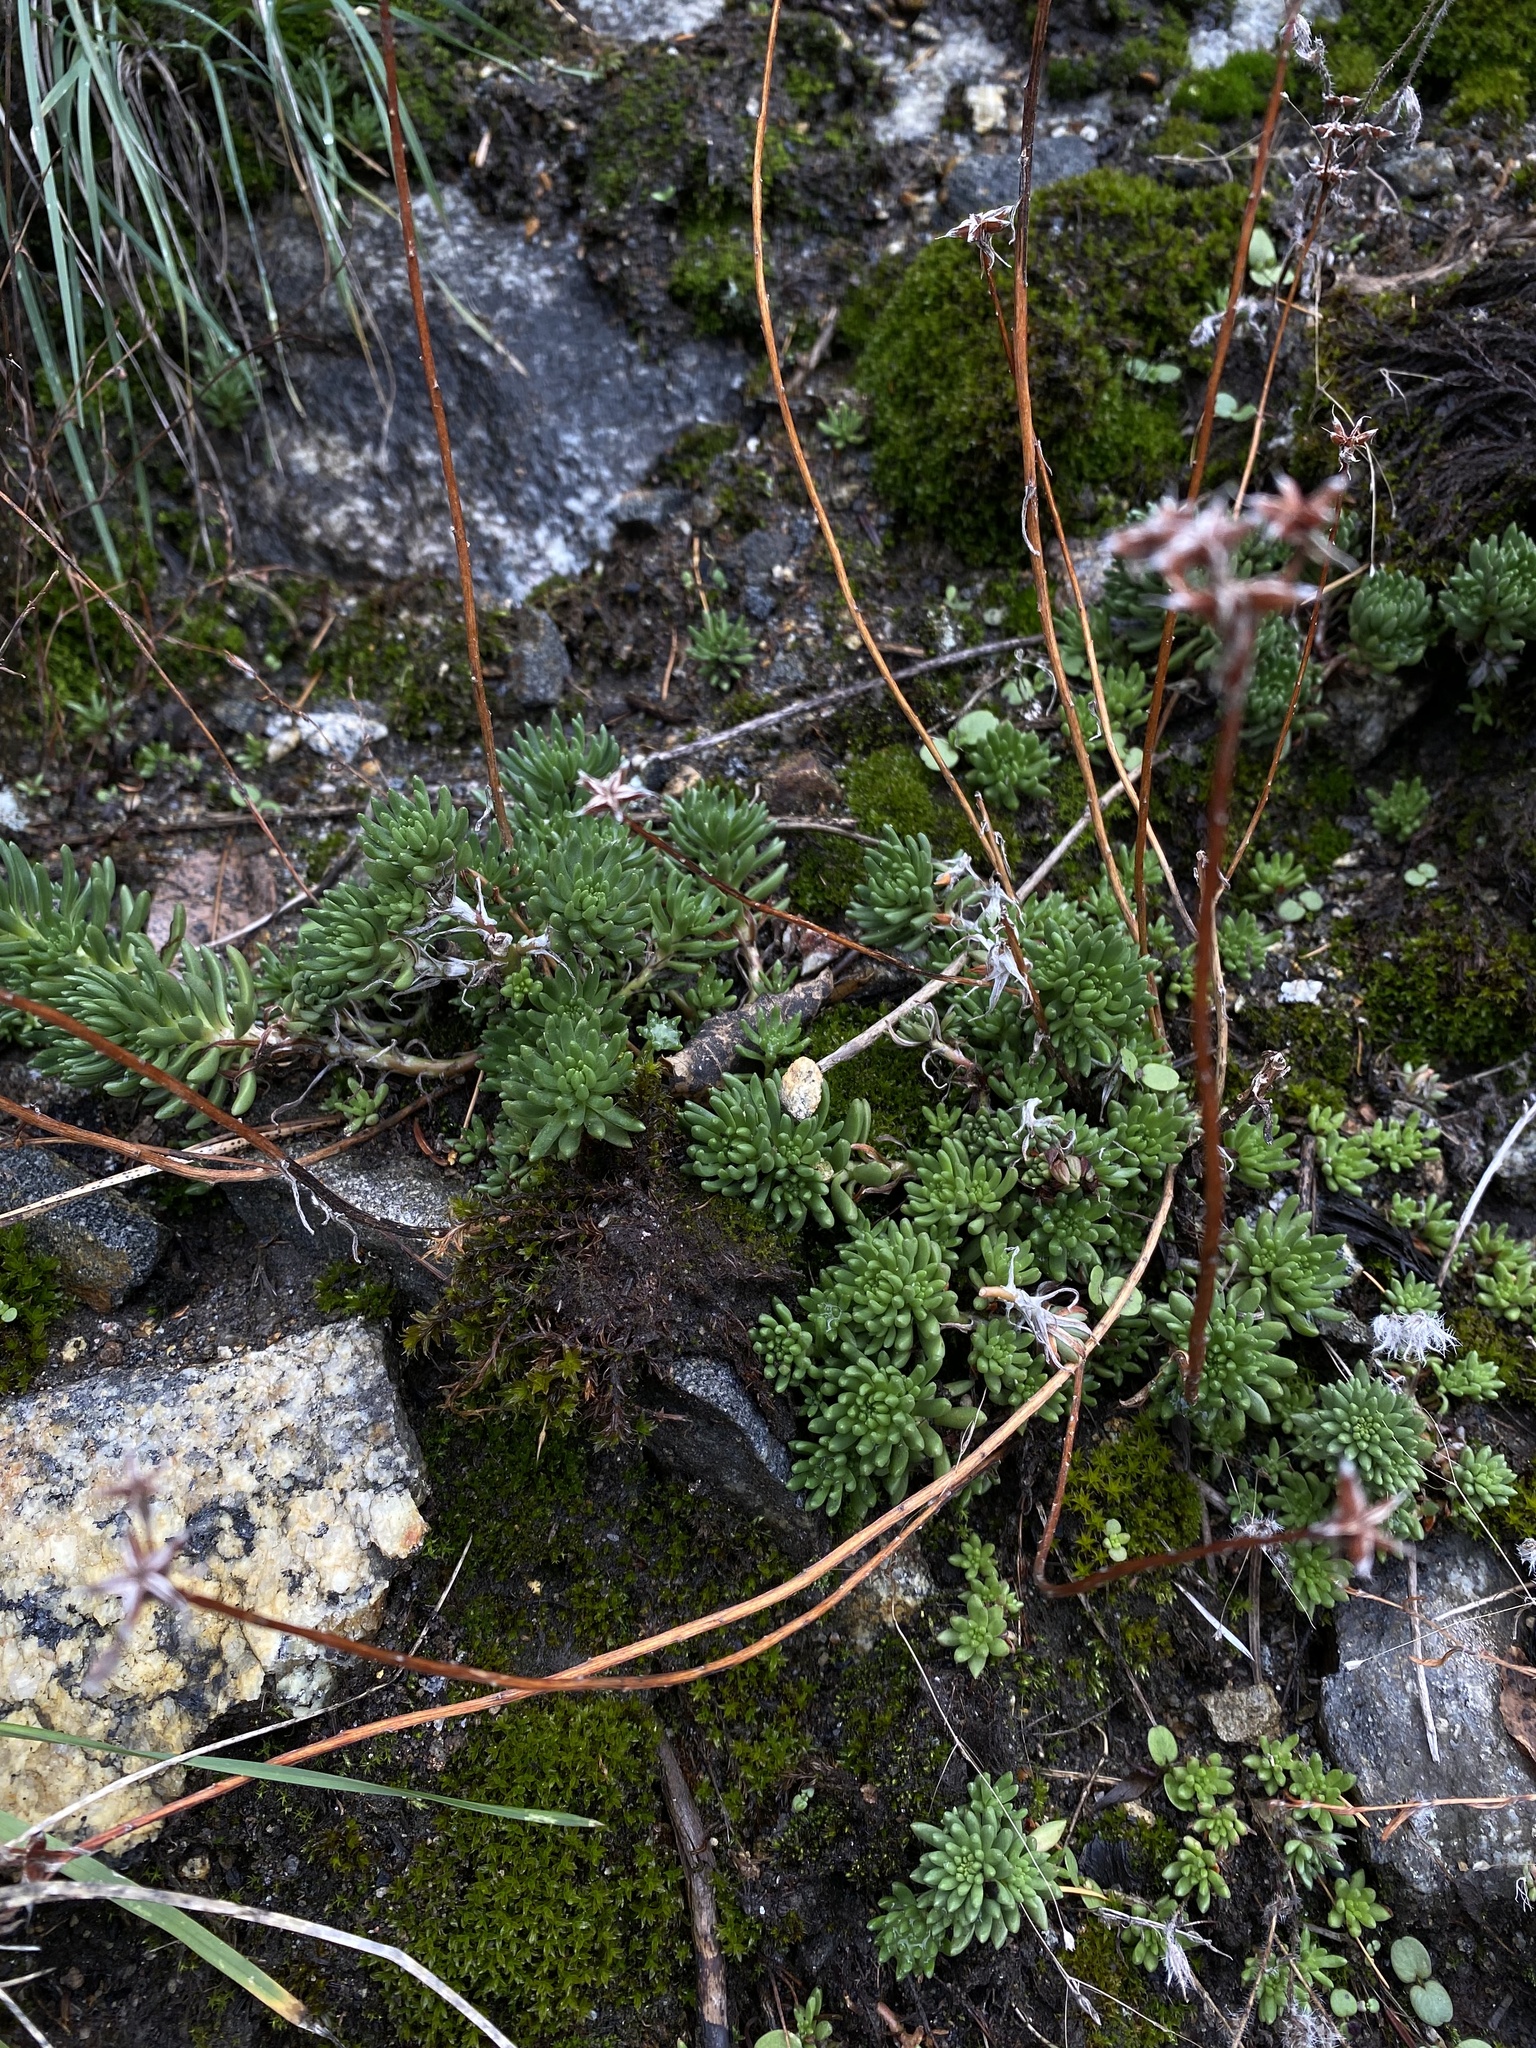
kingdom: Plantae
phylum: Tracheophyta
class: Magnoliopsida
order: Saxifragales
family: Crassulaceae
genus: Sedum
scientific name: Sedum stenopetalum
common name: Narrow-petaled stonecrop
